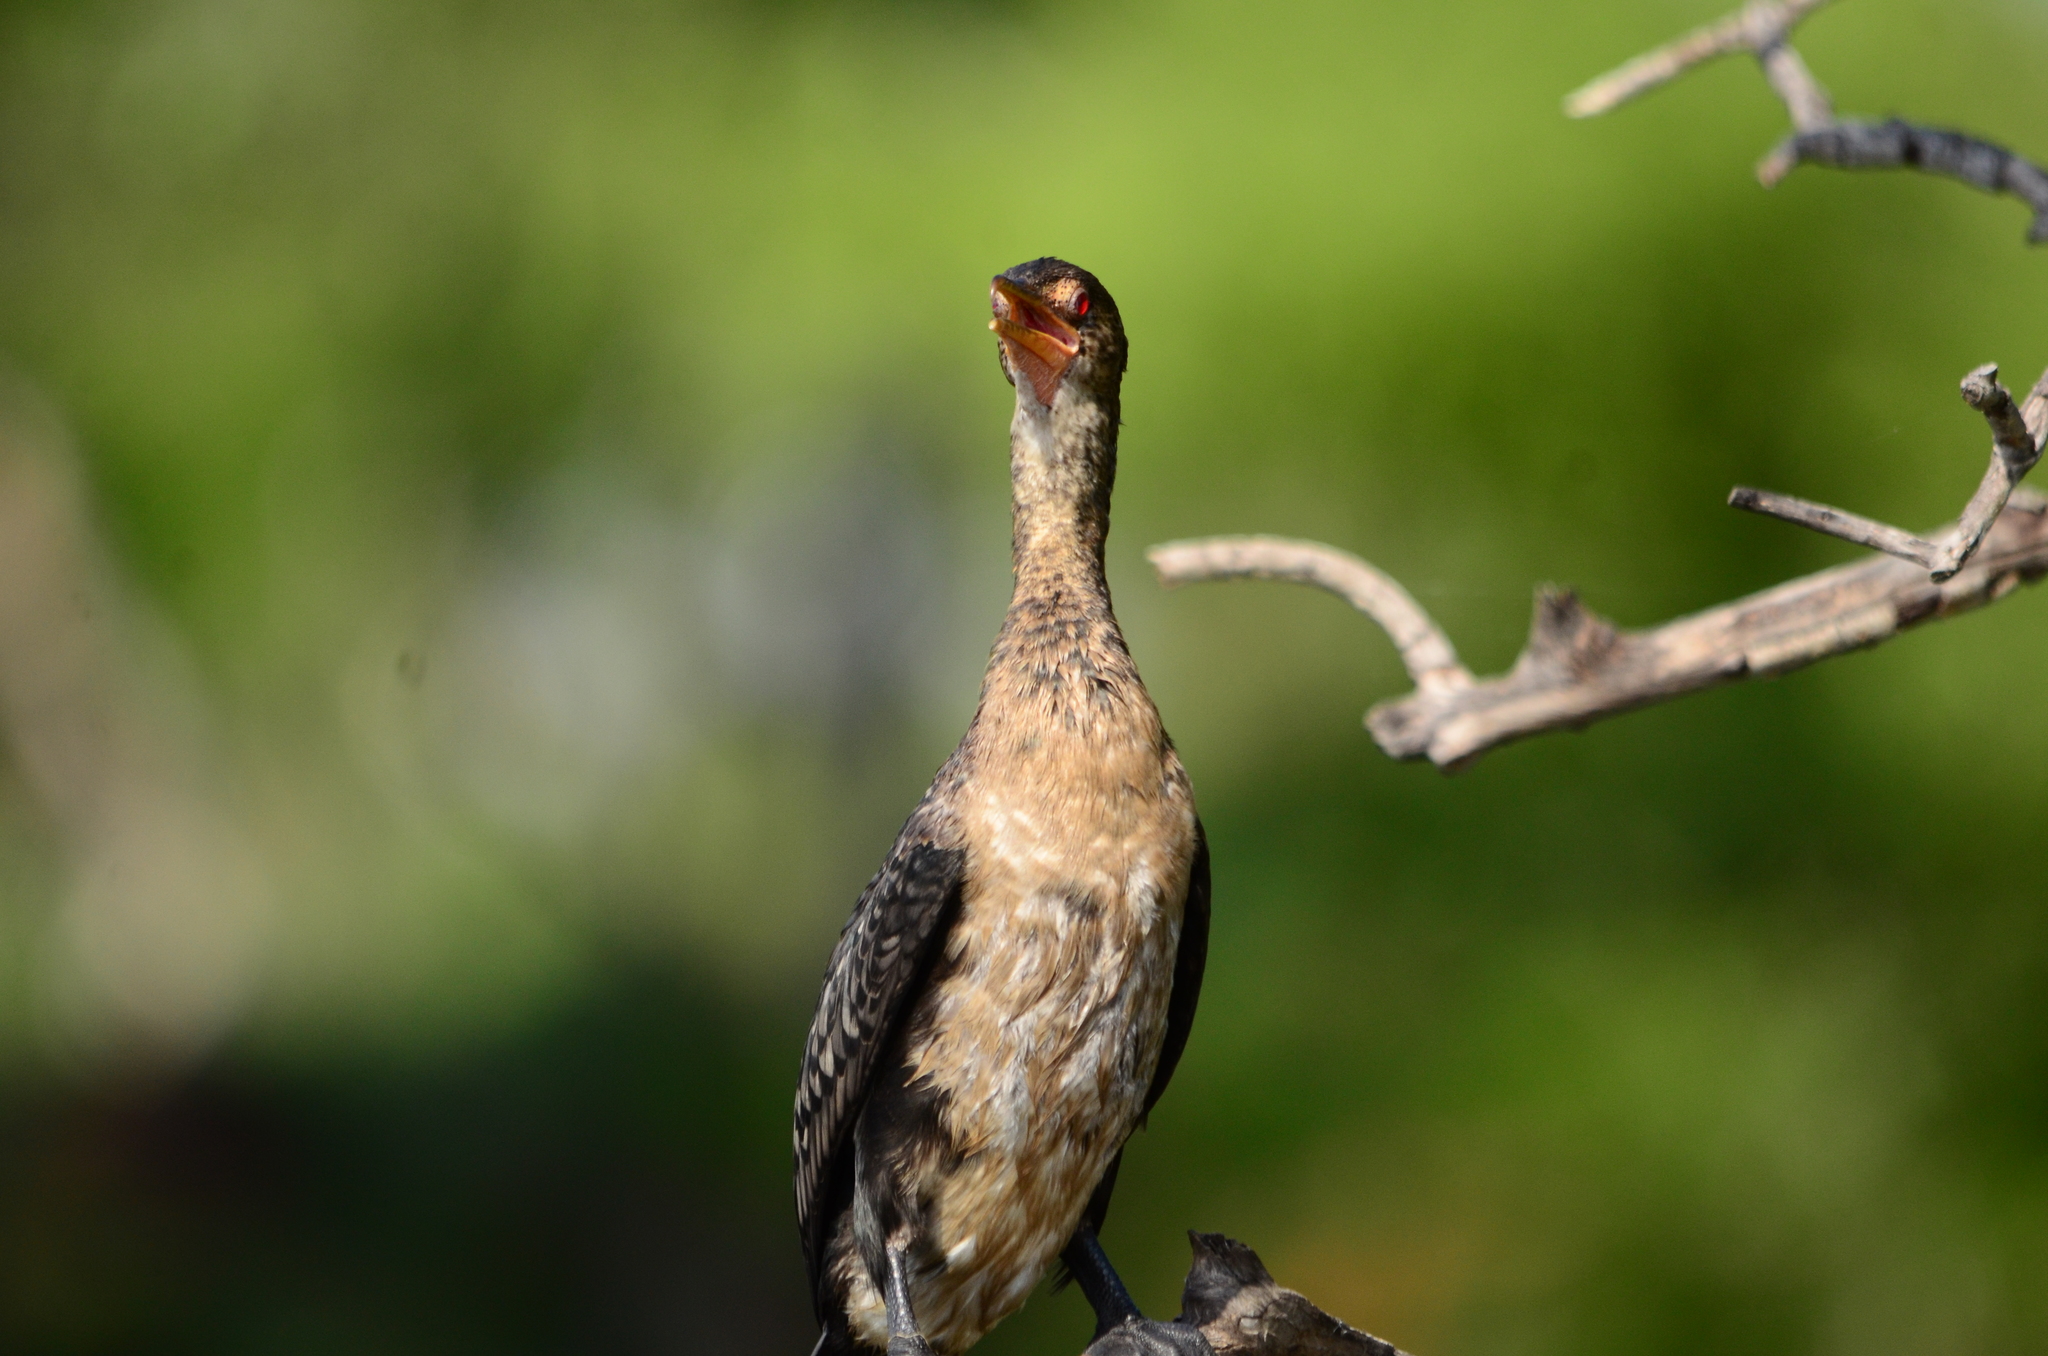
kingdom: Animalia
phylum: Chordata
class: Aves
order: Suliformes
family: Phalacrocoracidae
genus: Microcarbo
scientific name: Microcarbo africanus
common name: Long-tailed cormorant
